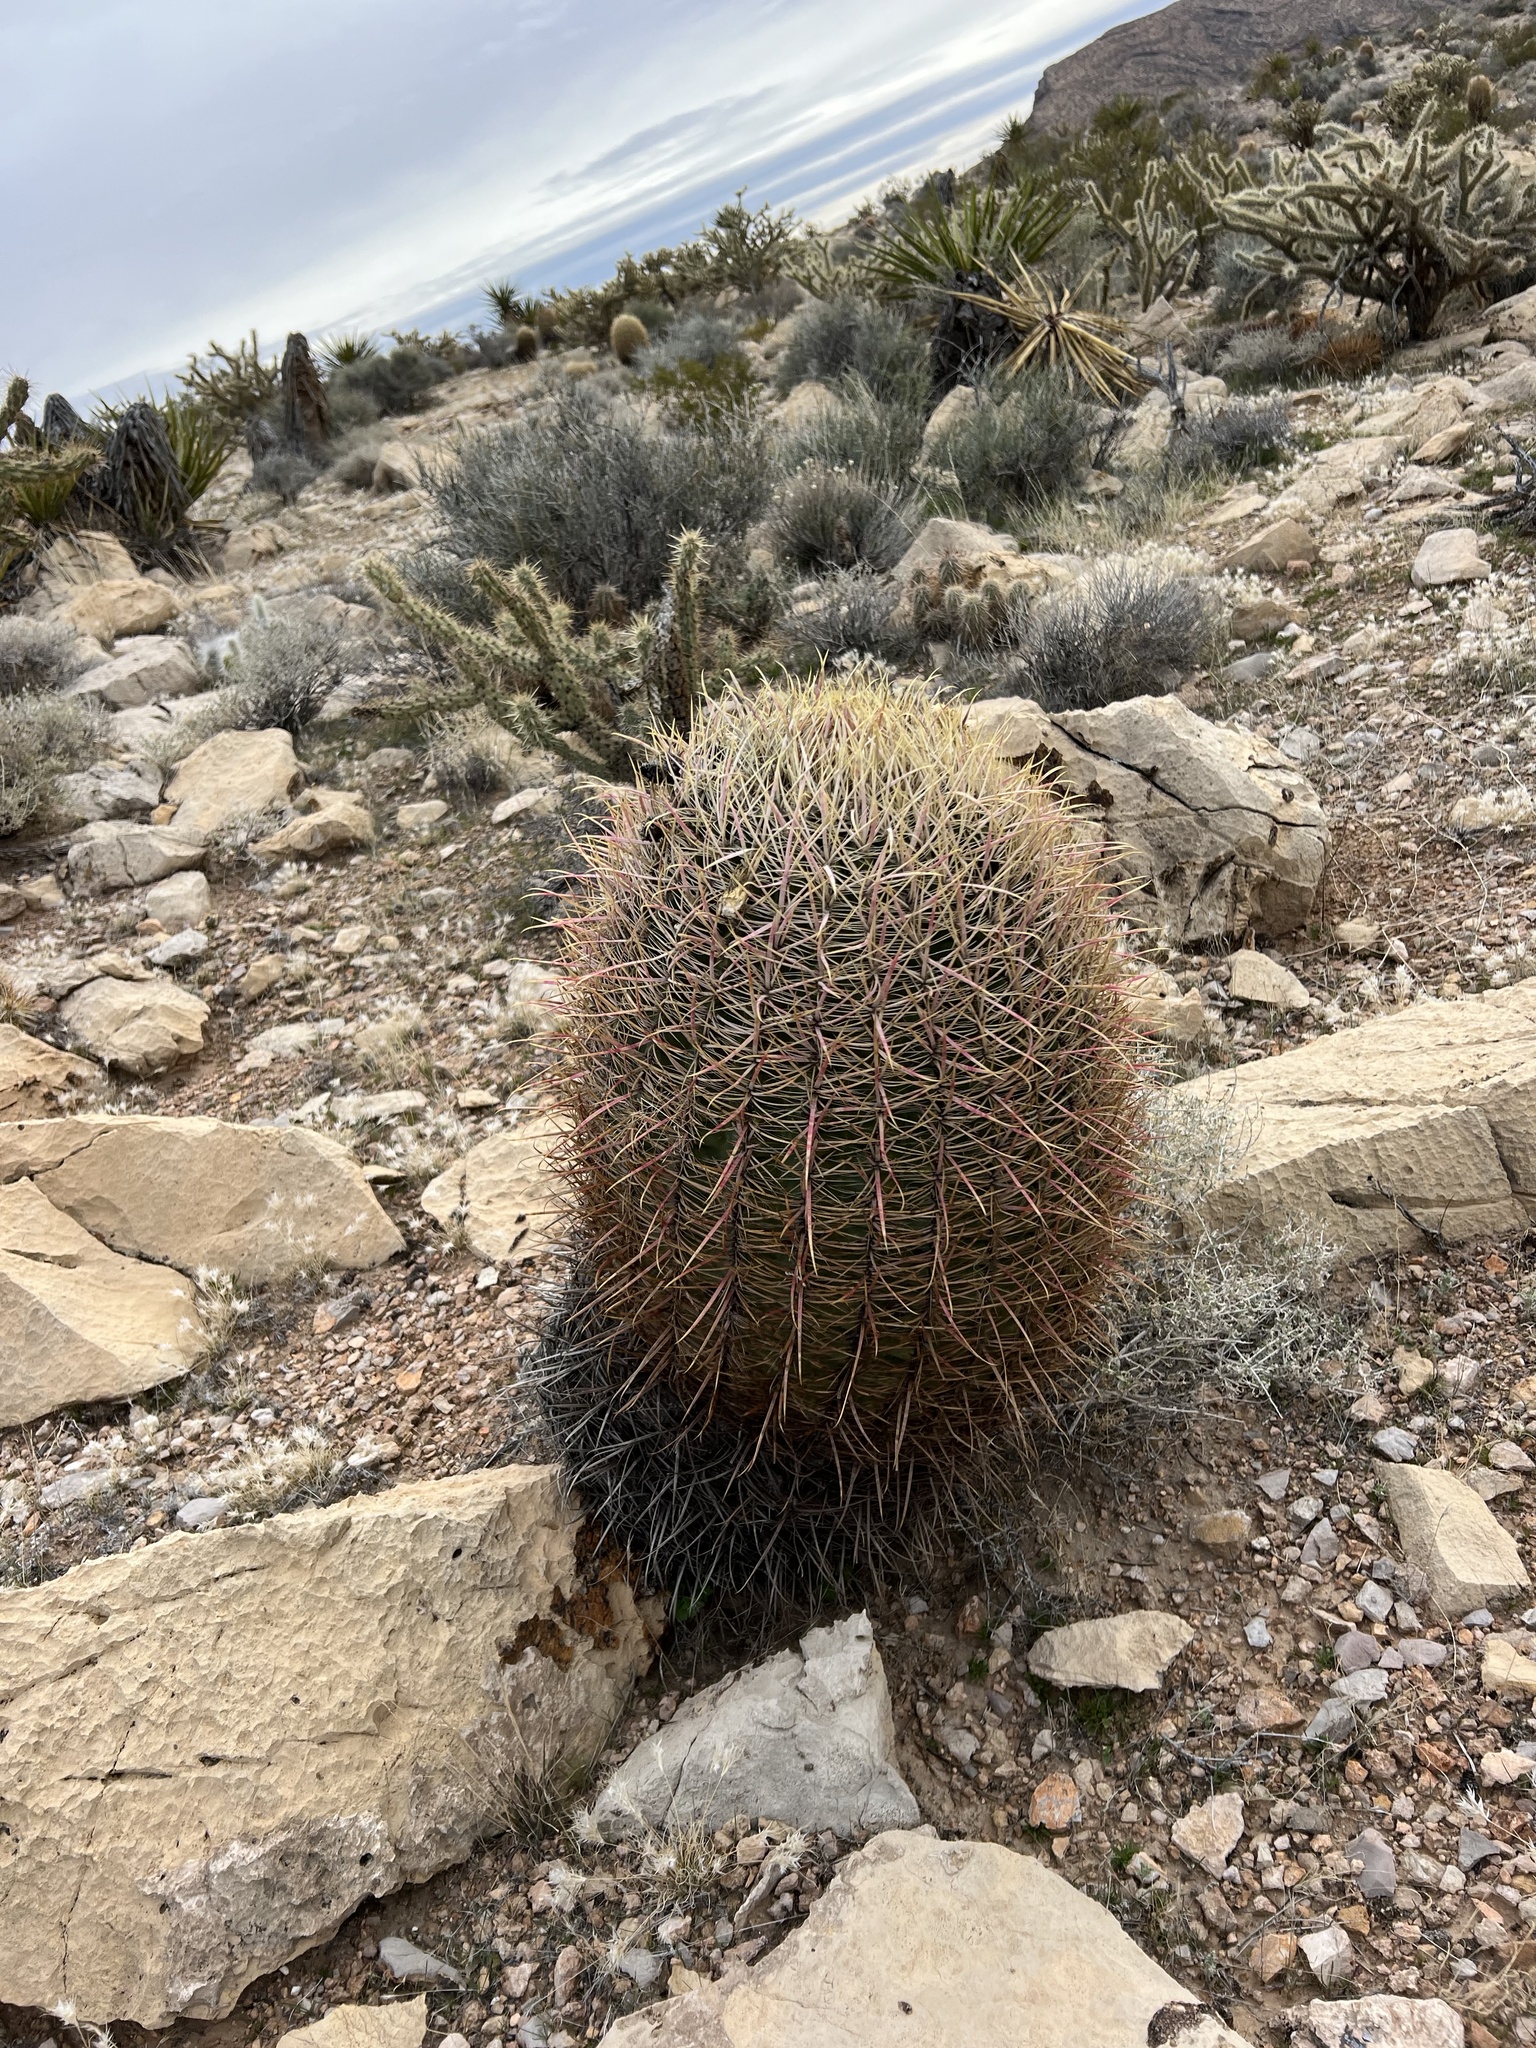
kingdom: Plantae
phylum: Tracheophyta
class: Magnoliopsida
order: Caryophyllales
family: Cactaceae
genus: Ferocactus
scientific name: Ferocactus cylindraceus
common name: California barrel cactus
